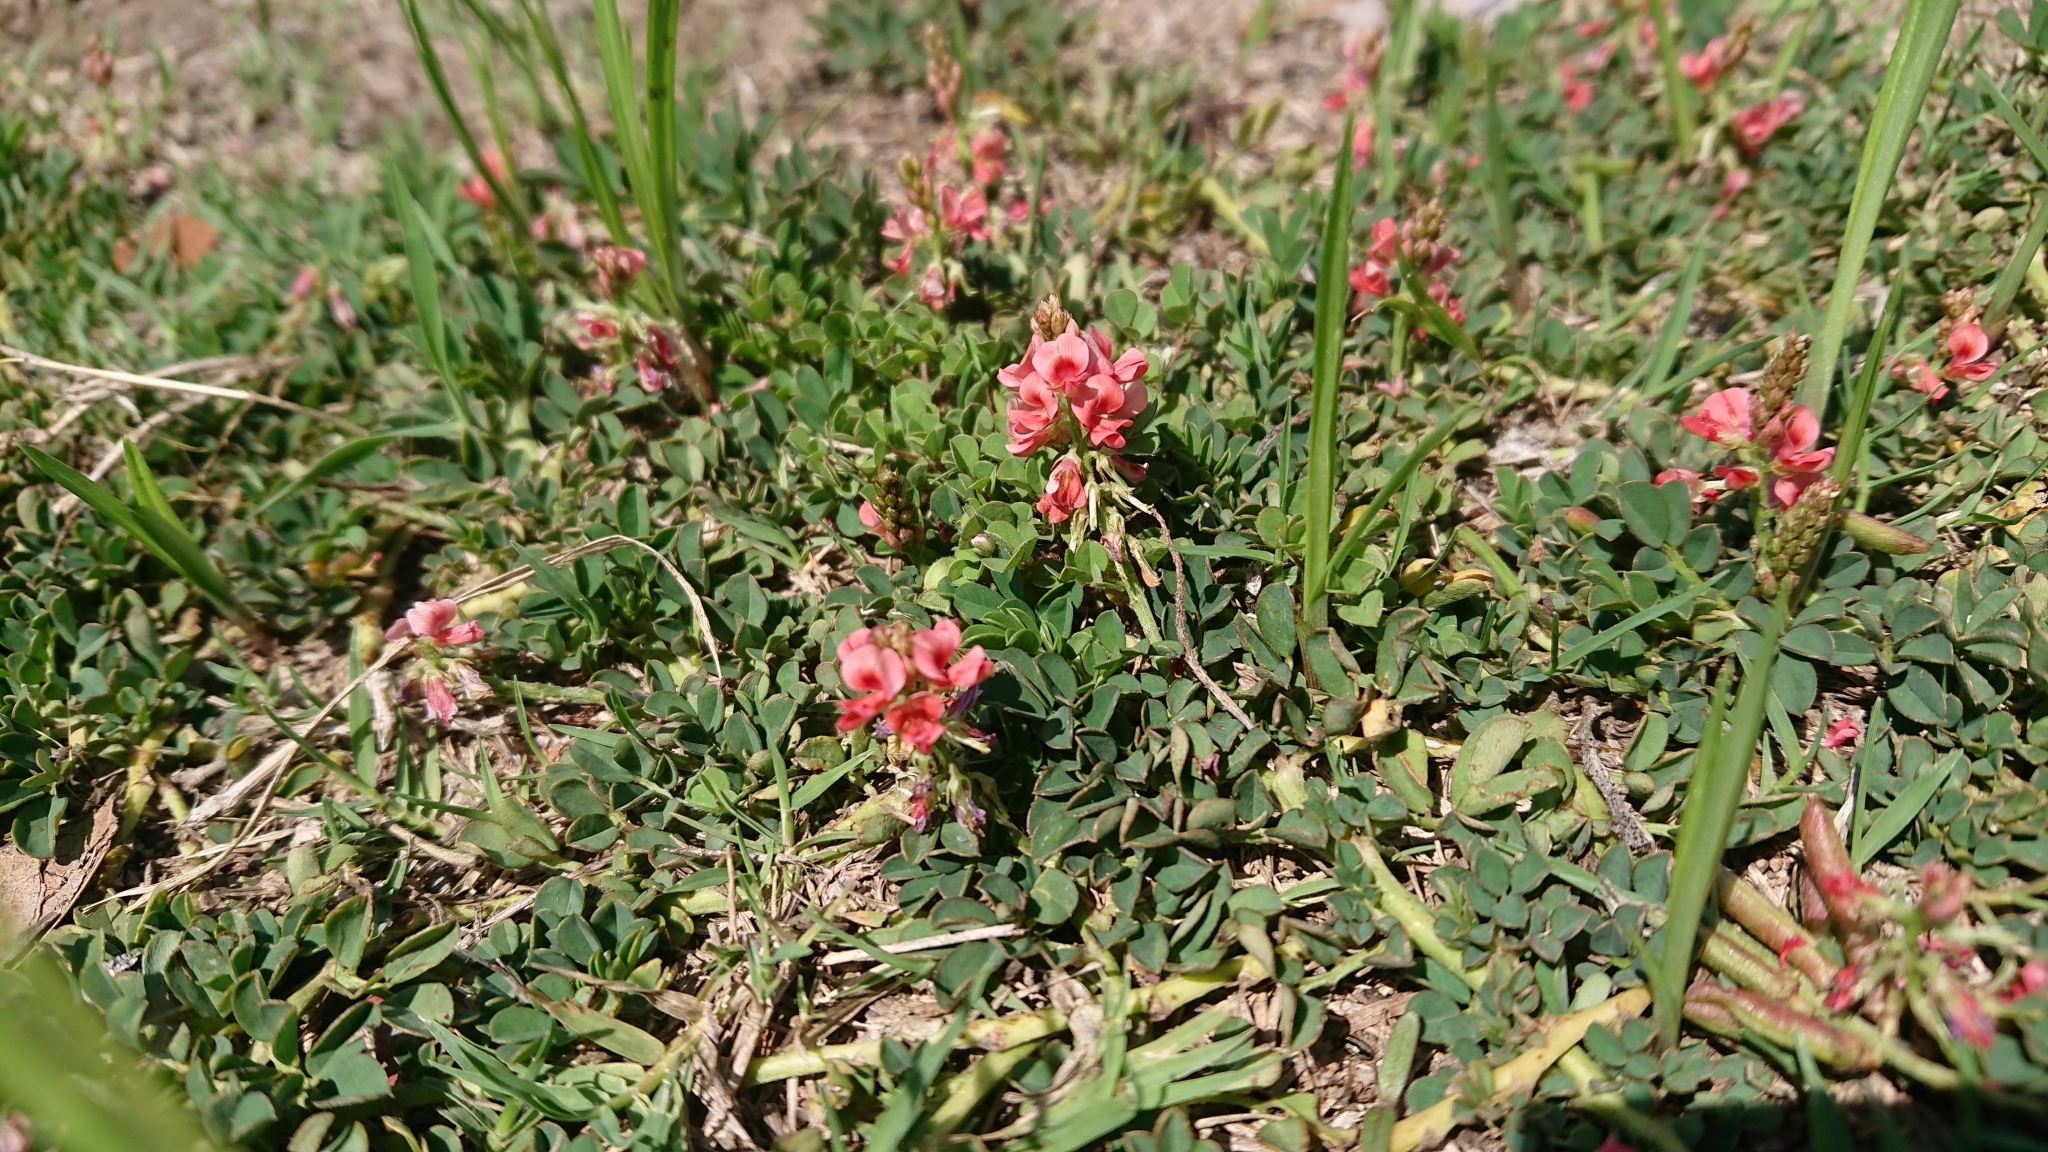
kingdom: Plantae
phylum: Tracheophyta
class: Magnoliopsida
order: Fabales
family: Fabaceae
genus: Indigofera
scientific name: Indigofera spicata
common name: Creeping indigo
